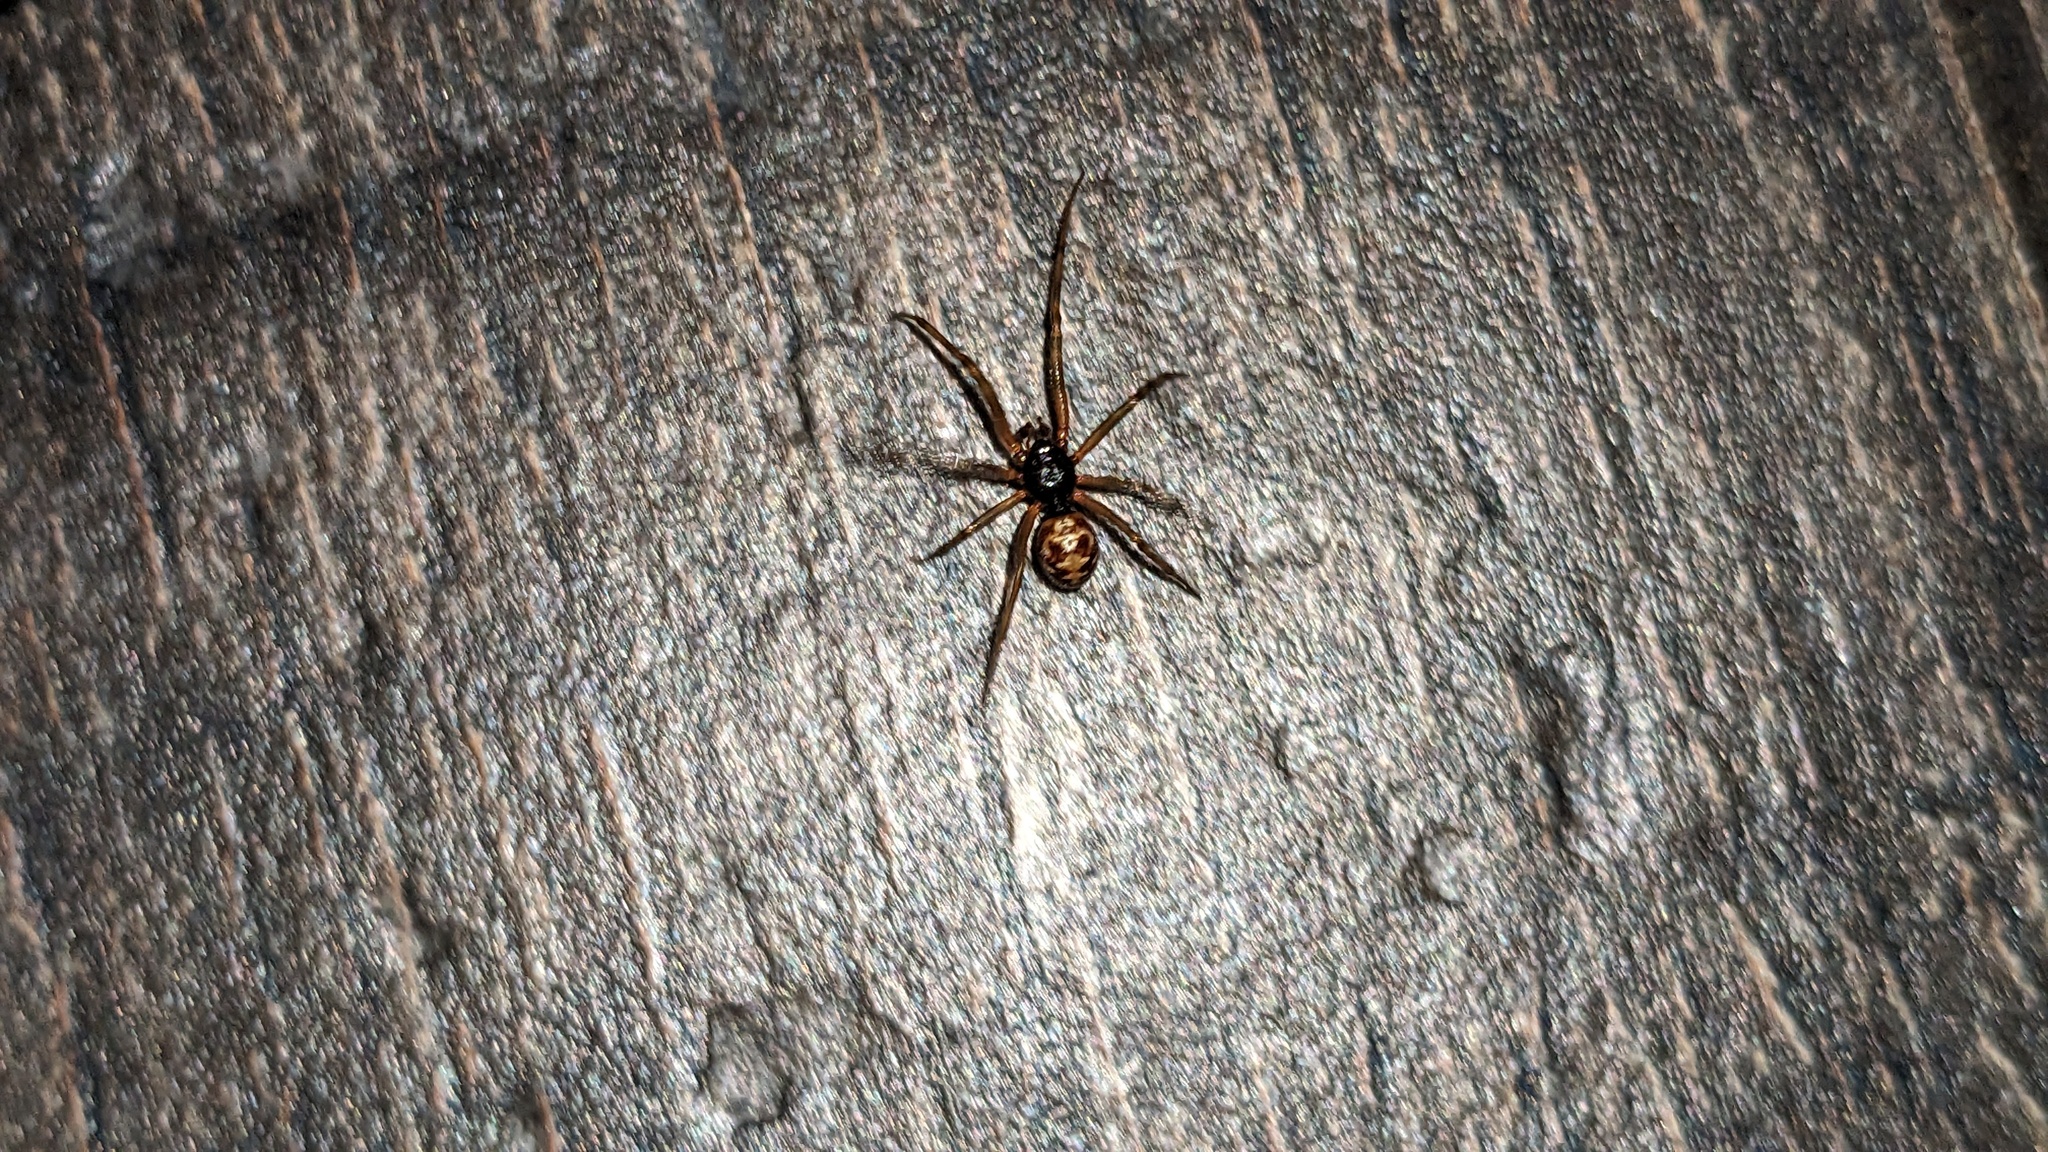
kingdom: Animalia
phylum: Arthropoda
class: Arachnida
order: Araneae
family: Theridiidae
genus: Steatoda
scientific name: Steatoda triangulosa
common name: Triangulate bud spider
